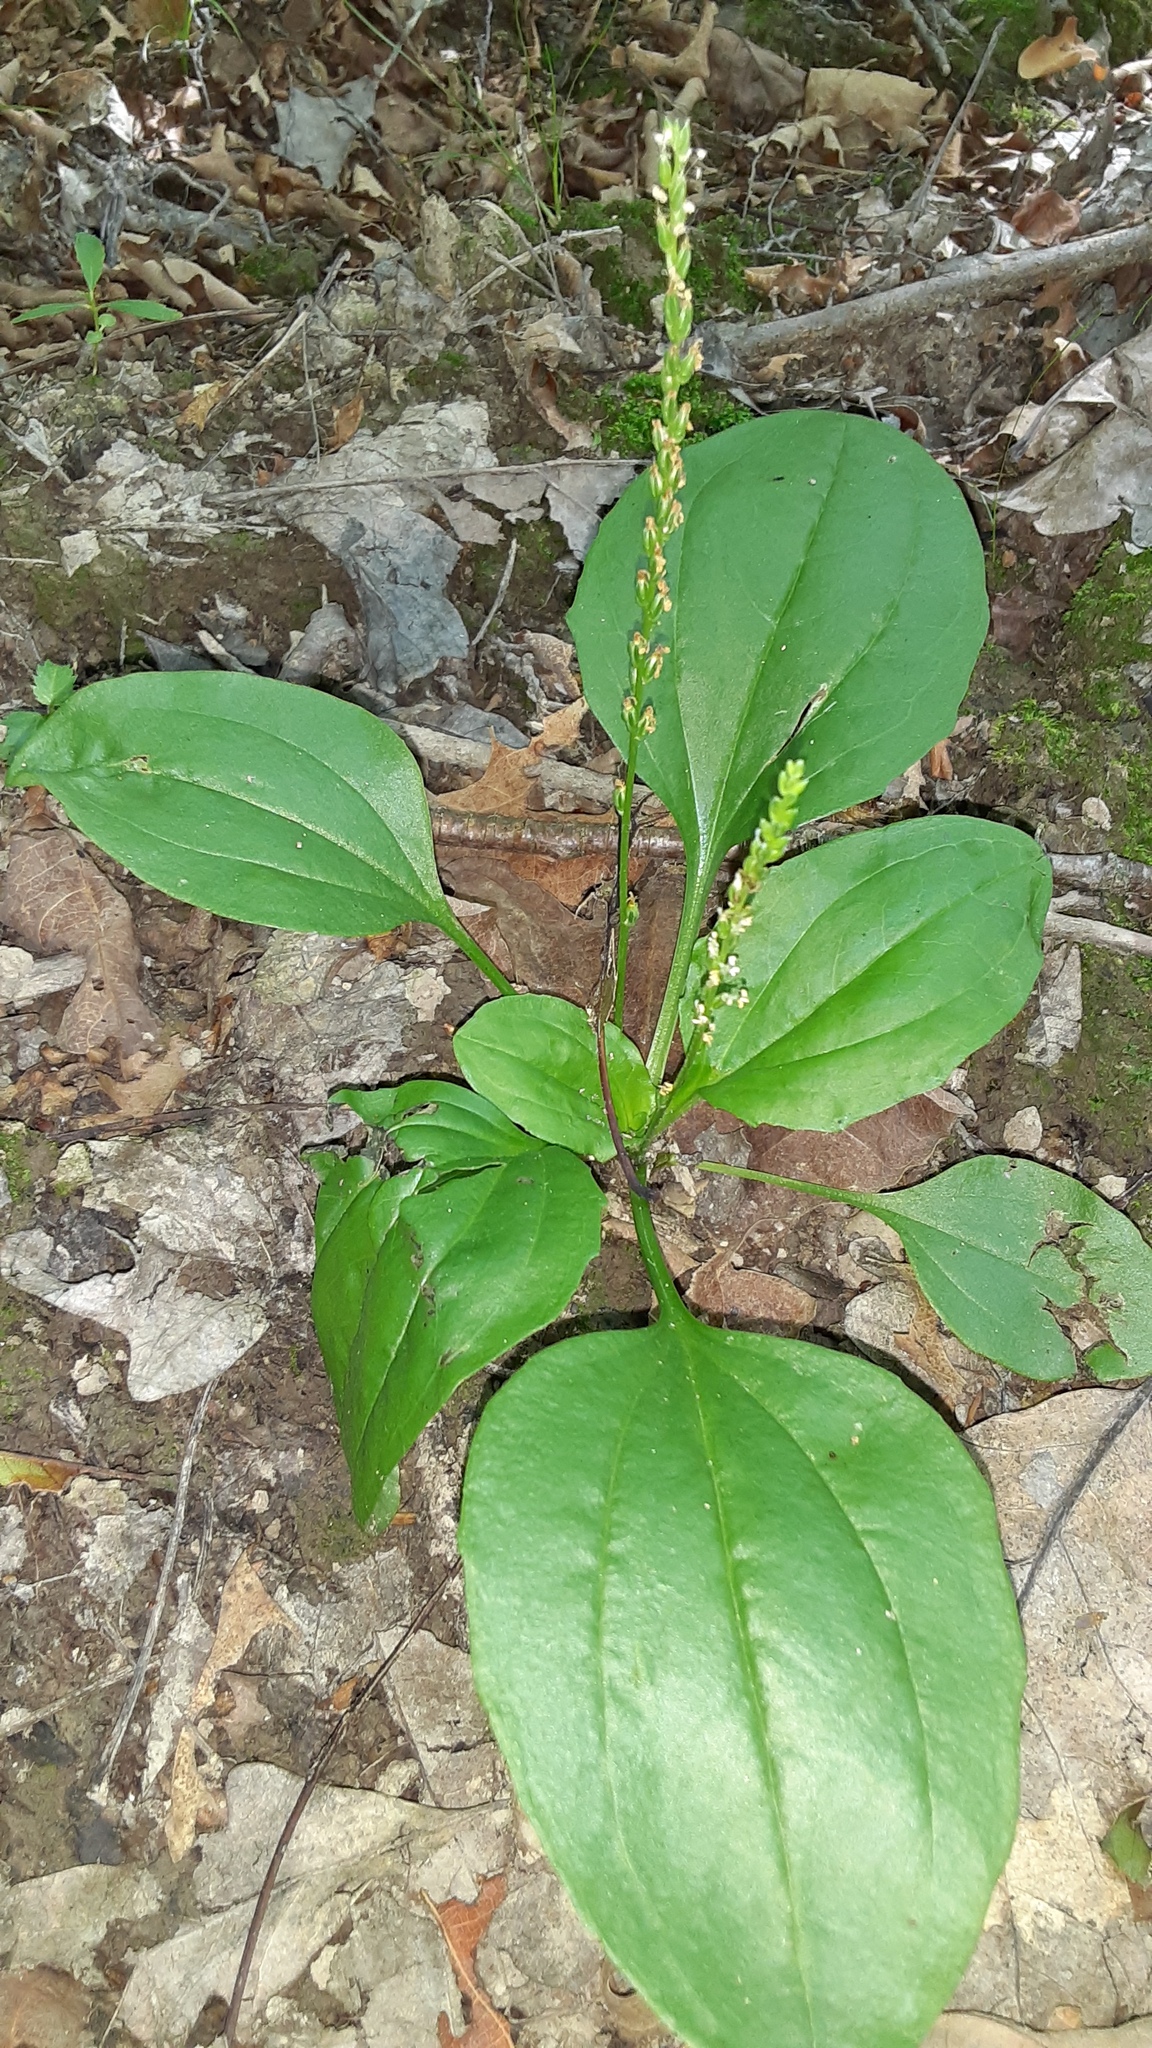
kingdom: Plantae
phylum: Tracheophyta
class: Magnoliopsida
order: Lamiales
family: Plantaginaceae
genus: Plantago
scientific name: Plantago major
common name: Common plantain
